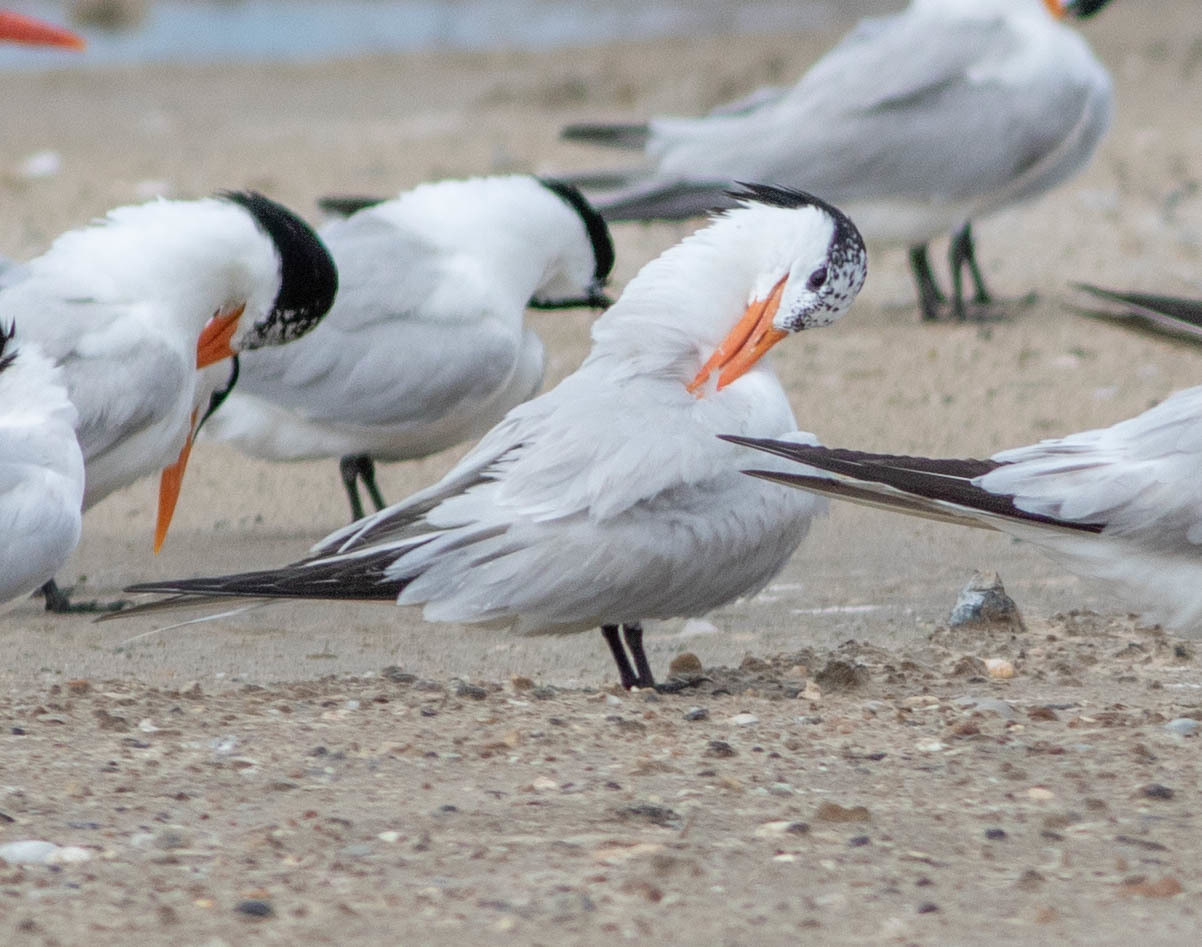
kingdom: Animalia
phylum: Chordata
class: Aves
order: Charadriiformes
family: Laridae
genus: Thalasseus
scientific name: Thalasseus maximus
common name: Royal tern
